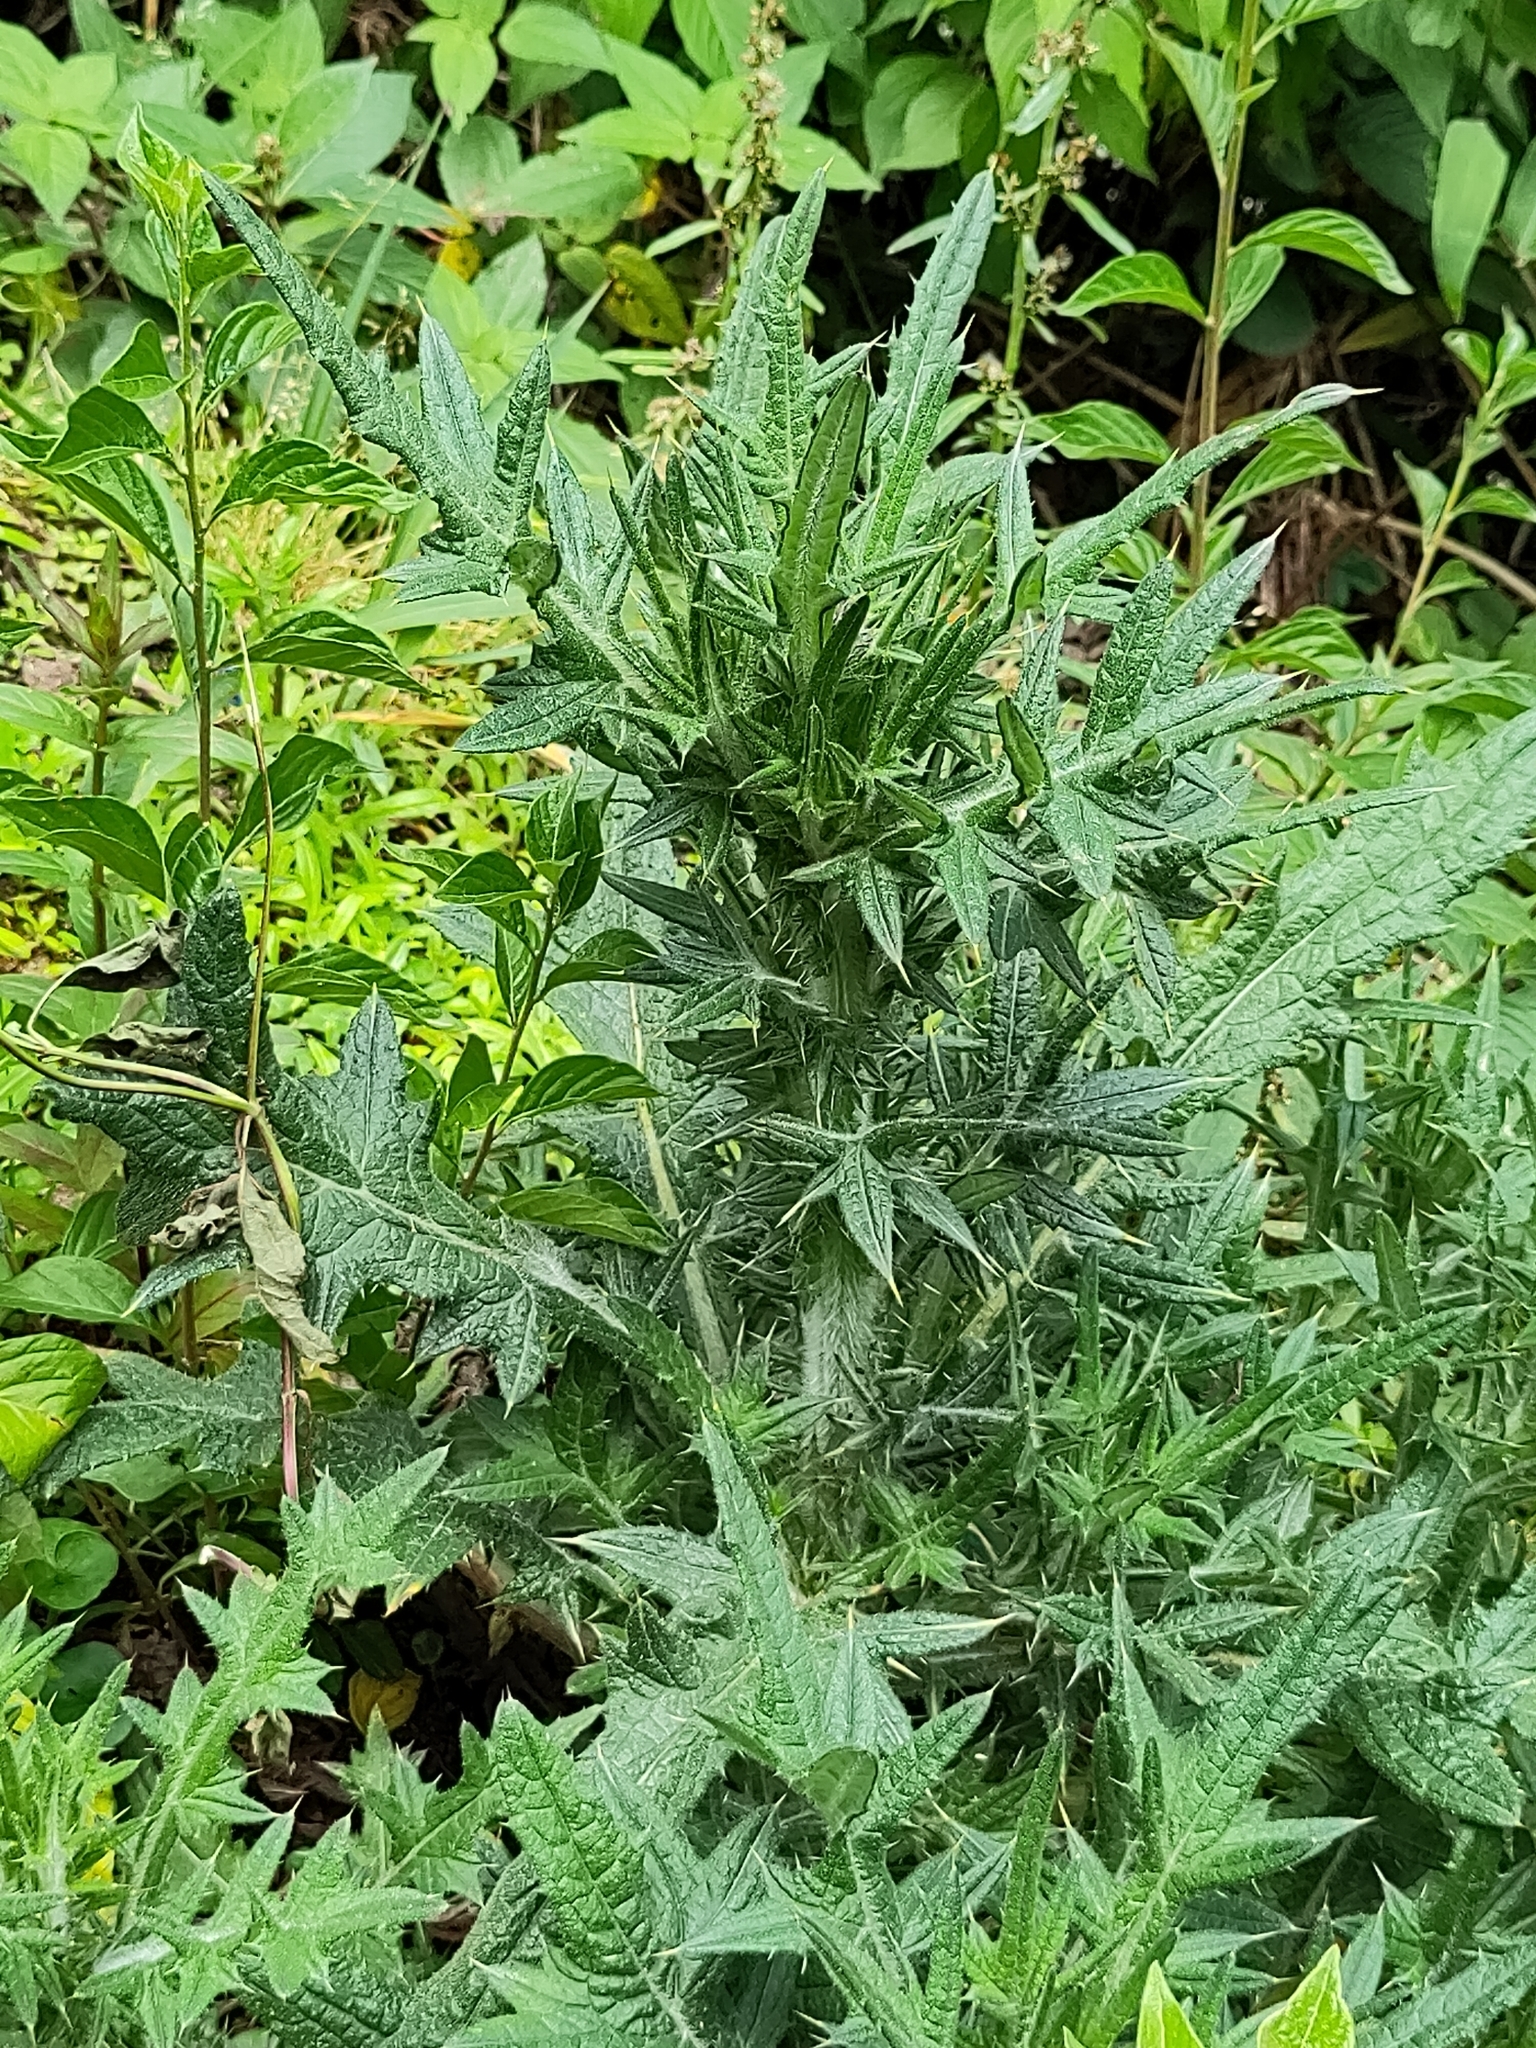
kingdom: Plantae
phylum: Tracheophyta
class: Magnoliopsida
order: Asterales
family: Asteraceae
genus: Cirsium
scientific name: Cirsium vulgare
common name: Bull thistle
